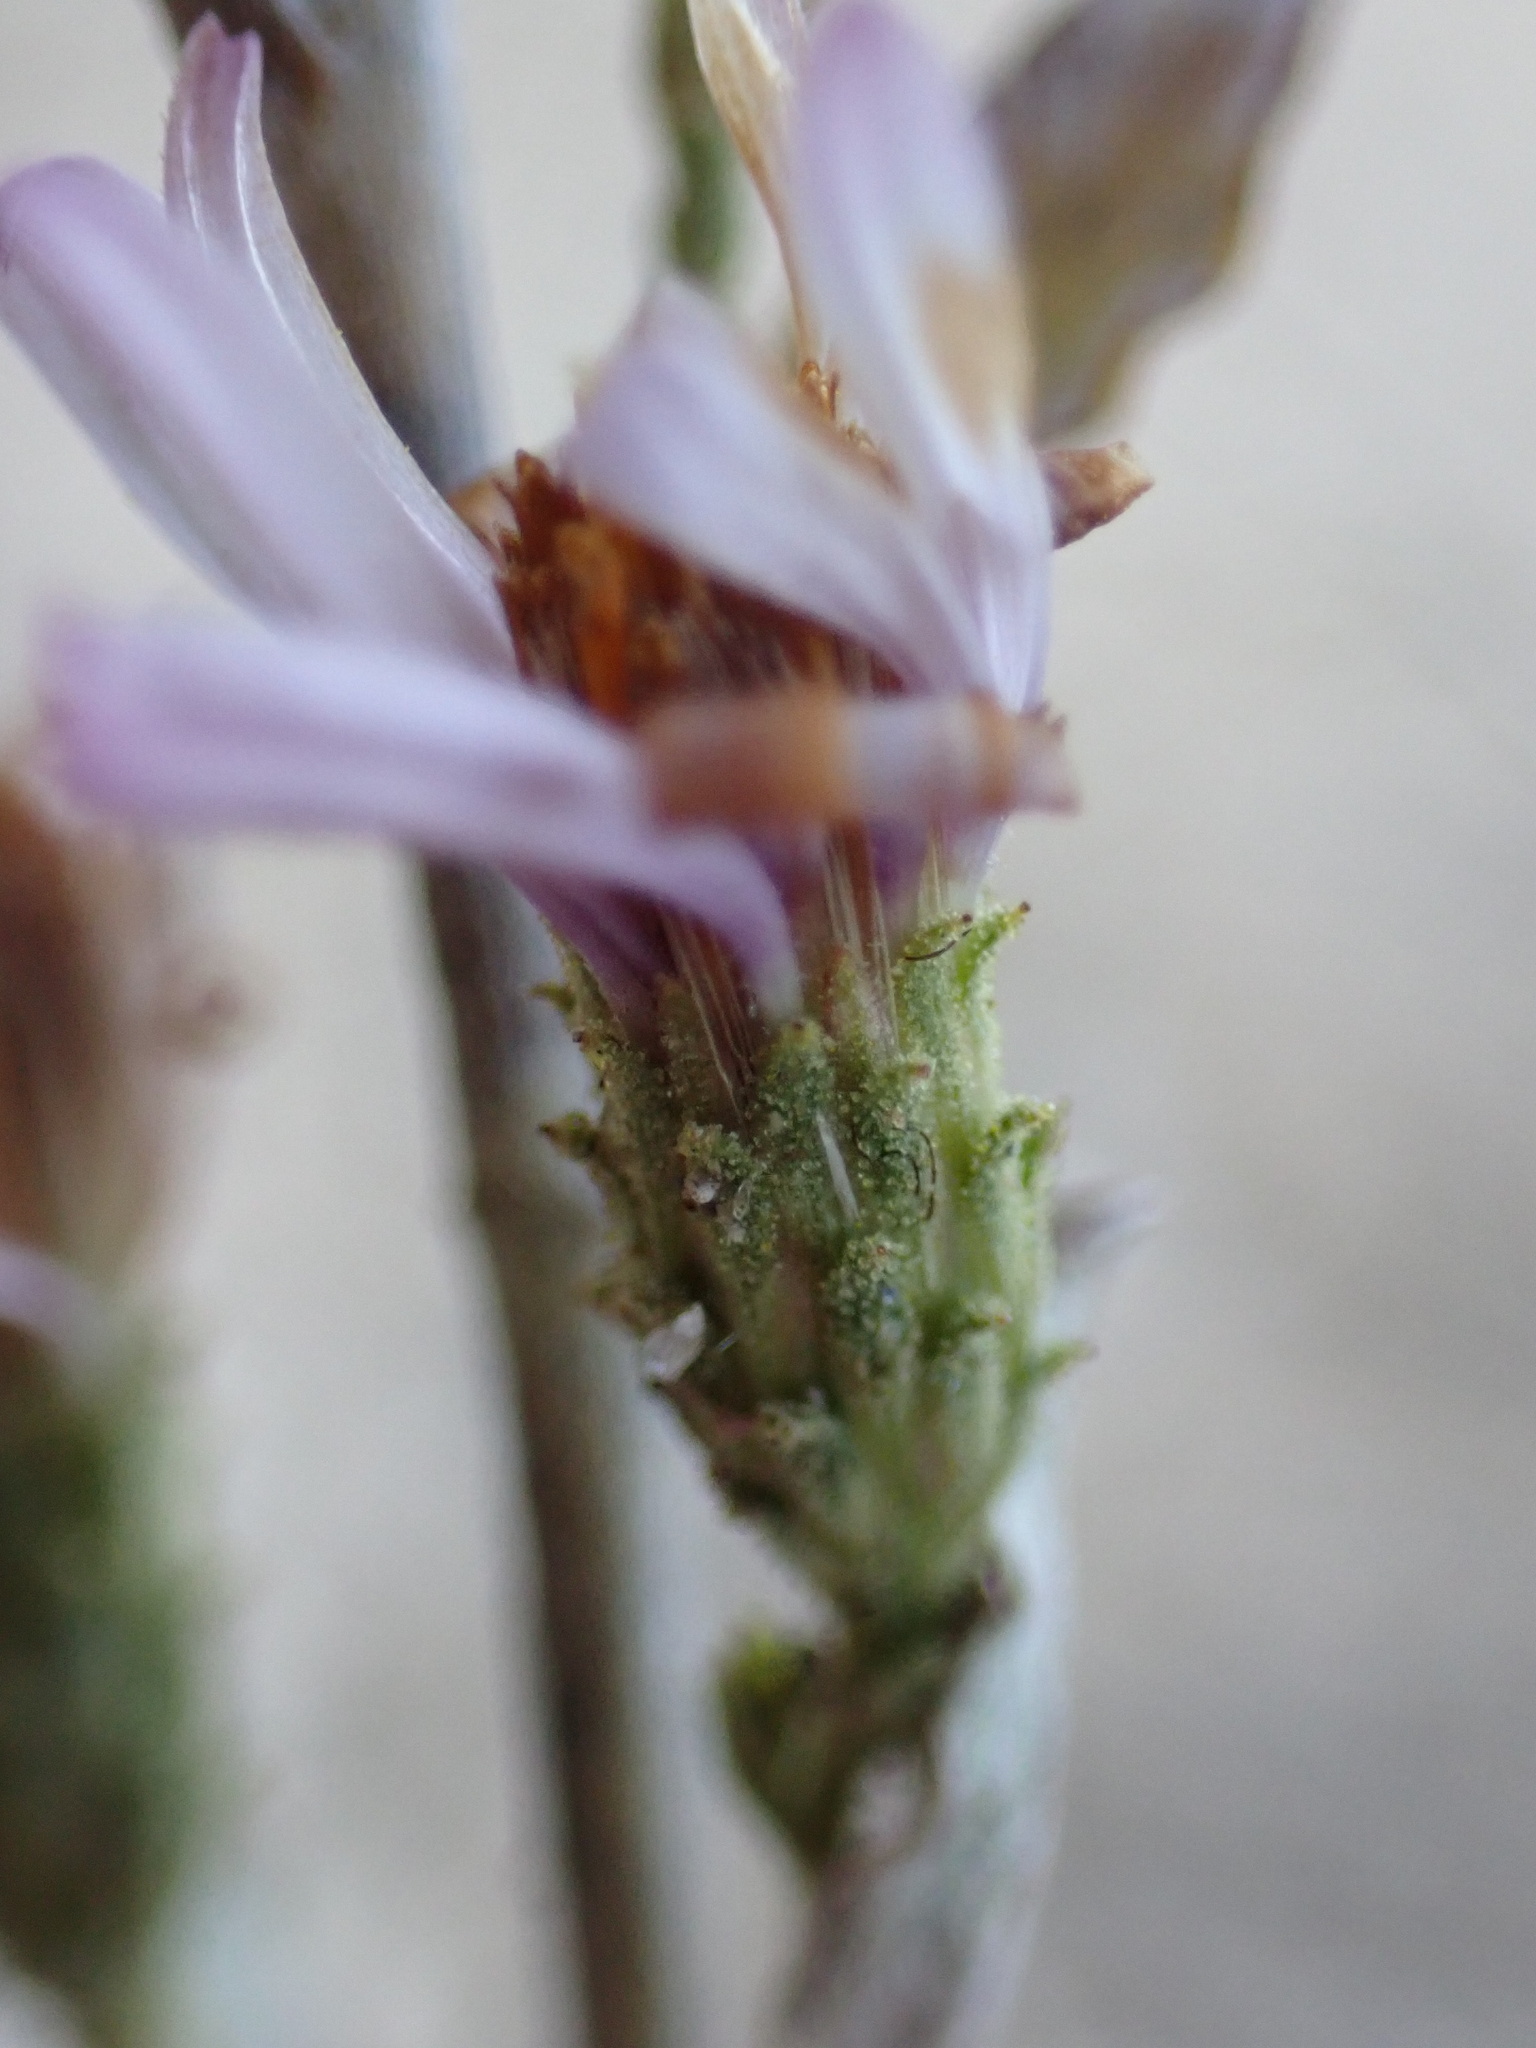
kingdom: Plantae
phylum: Tracheophyta
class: Magnoliopsida
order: Asterales
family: Asteraceae
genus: Corethrogyne
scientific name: Corethrogyne filaginifolia
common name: Sand-aster
